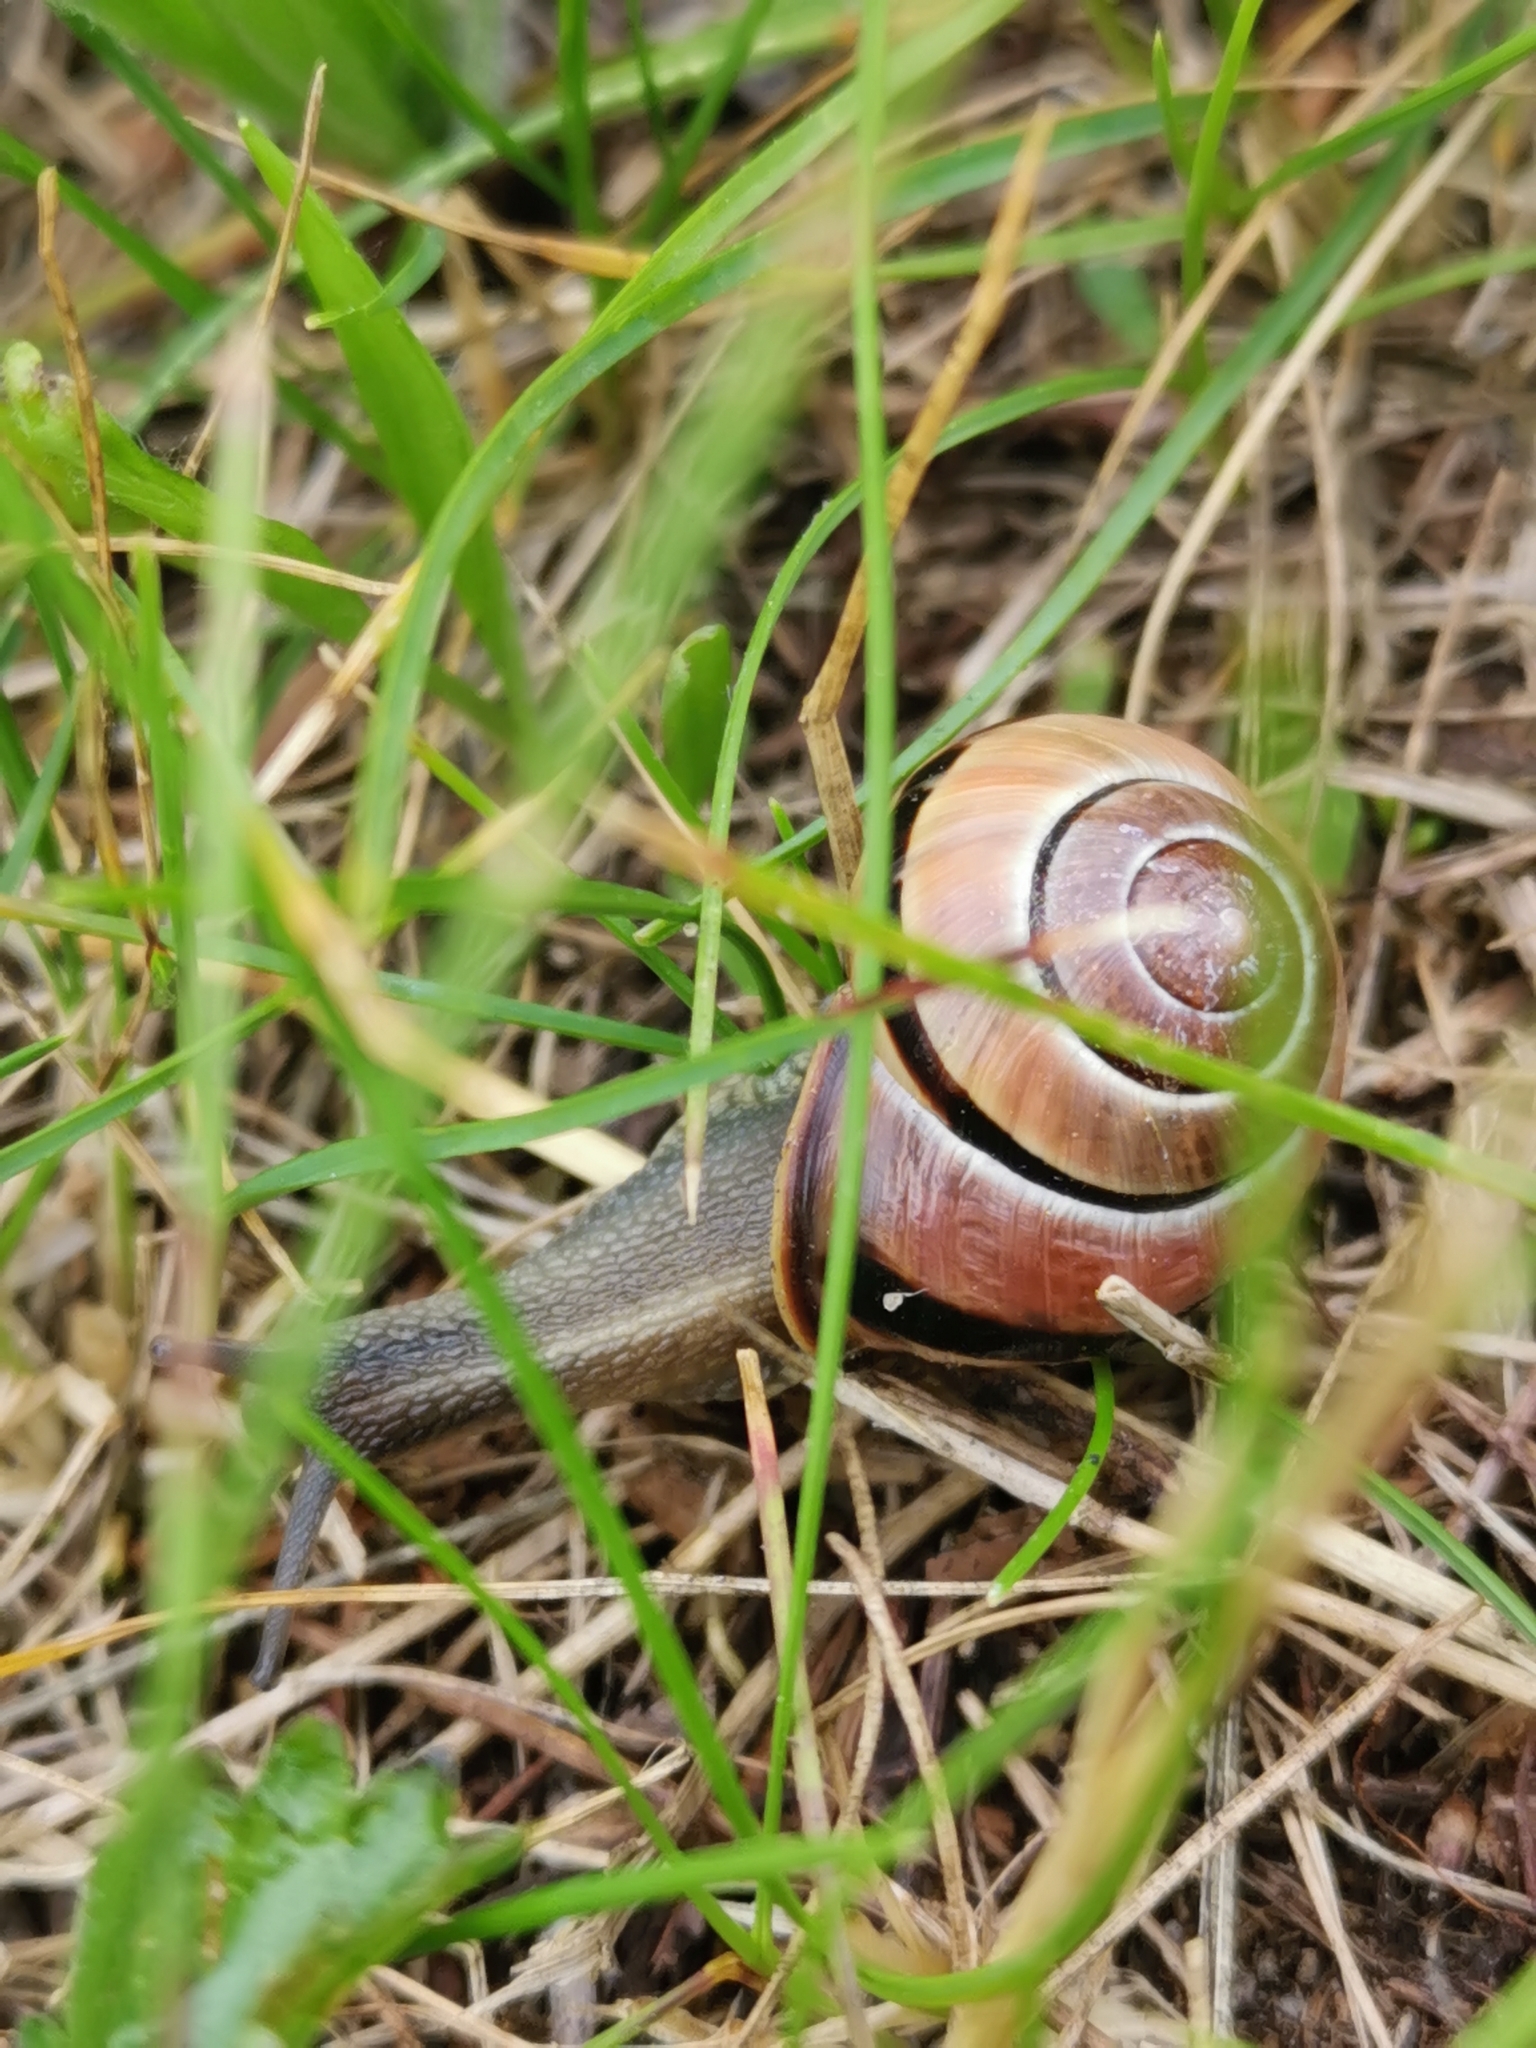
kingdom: Animalia
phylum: Mollusca
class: Gastropoda
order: Stylommatophora
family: Helicidae
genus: Cepaea
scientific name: Cepaea nemoralis
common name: Grovesnail
